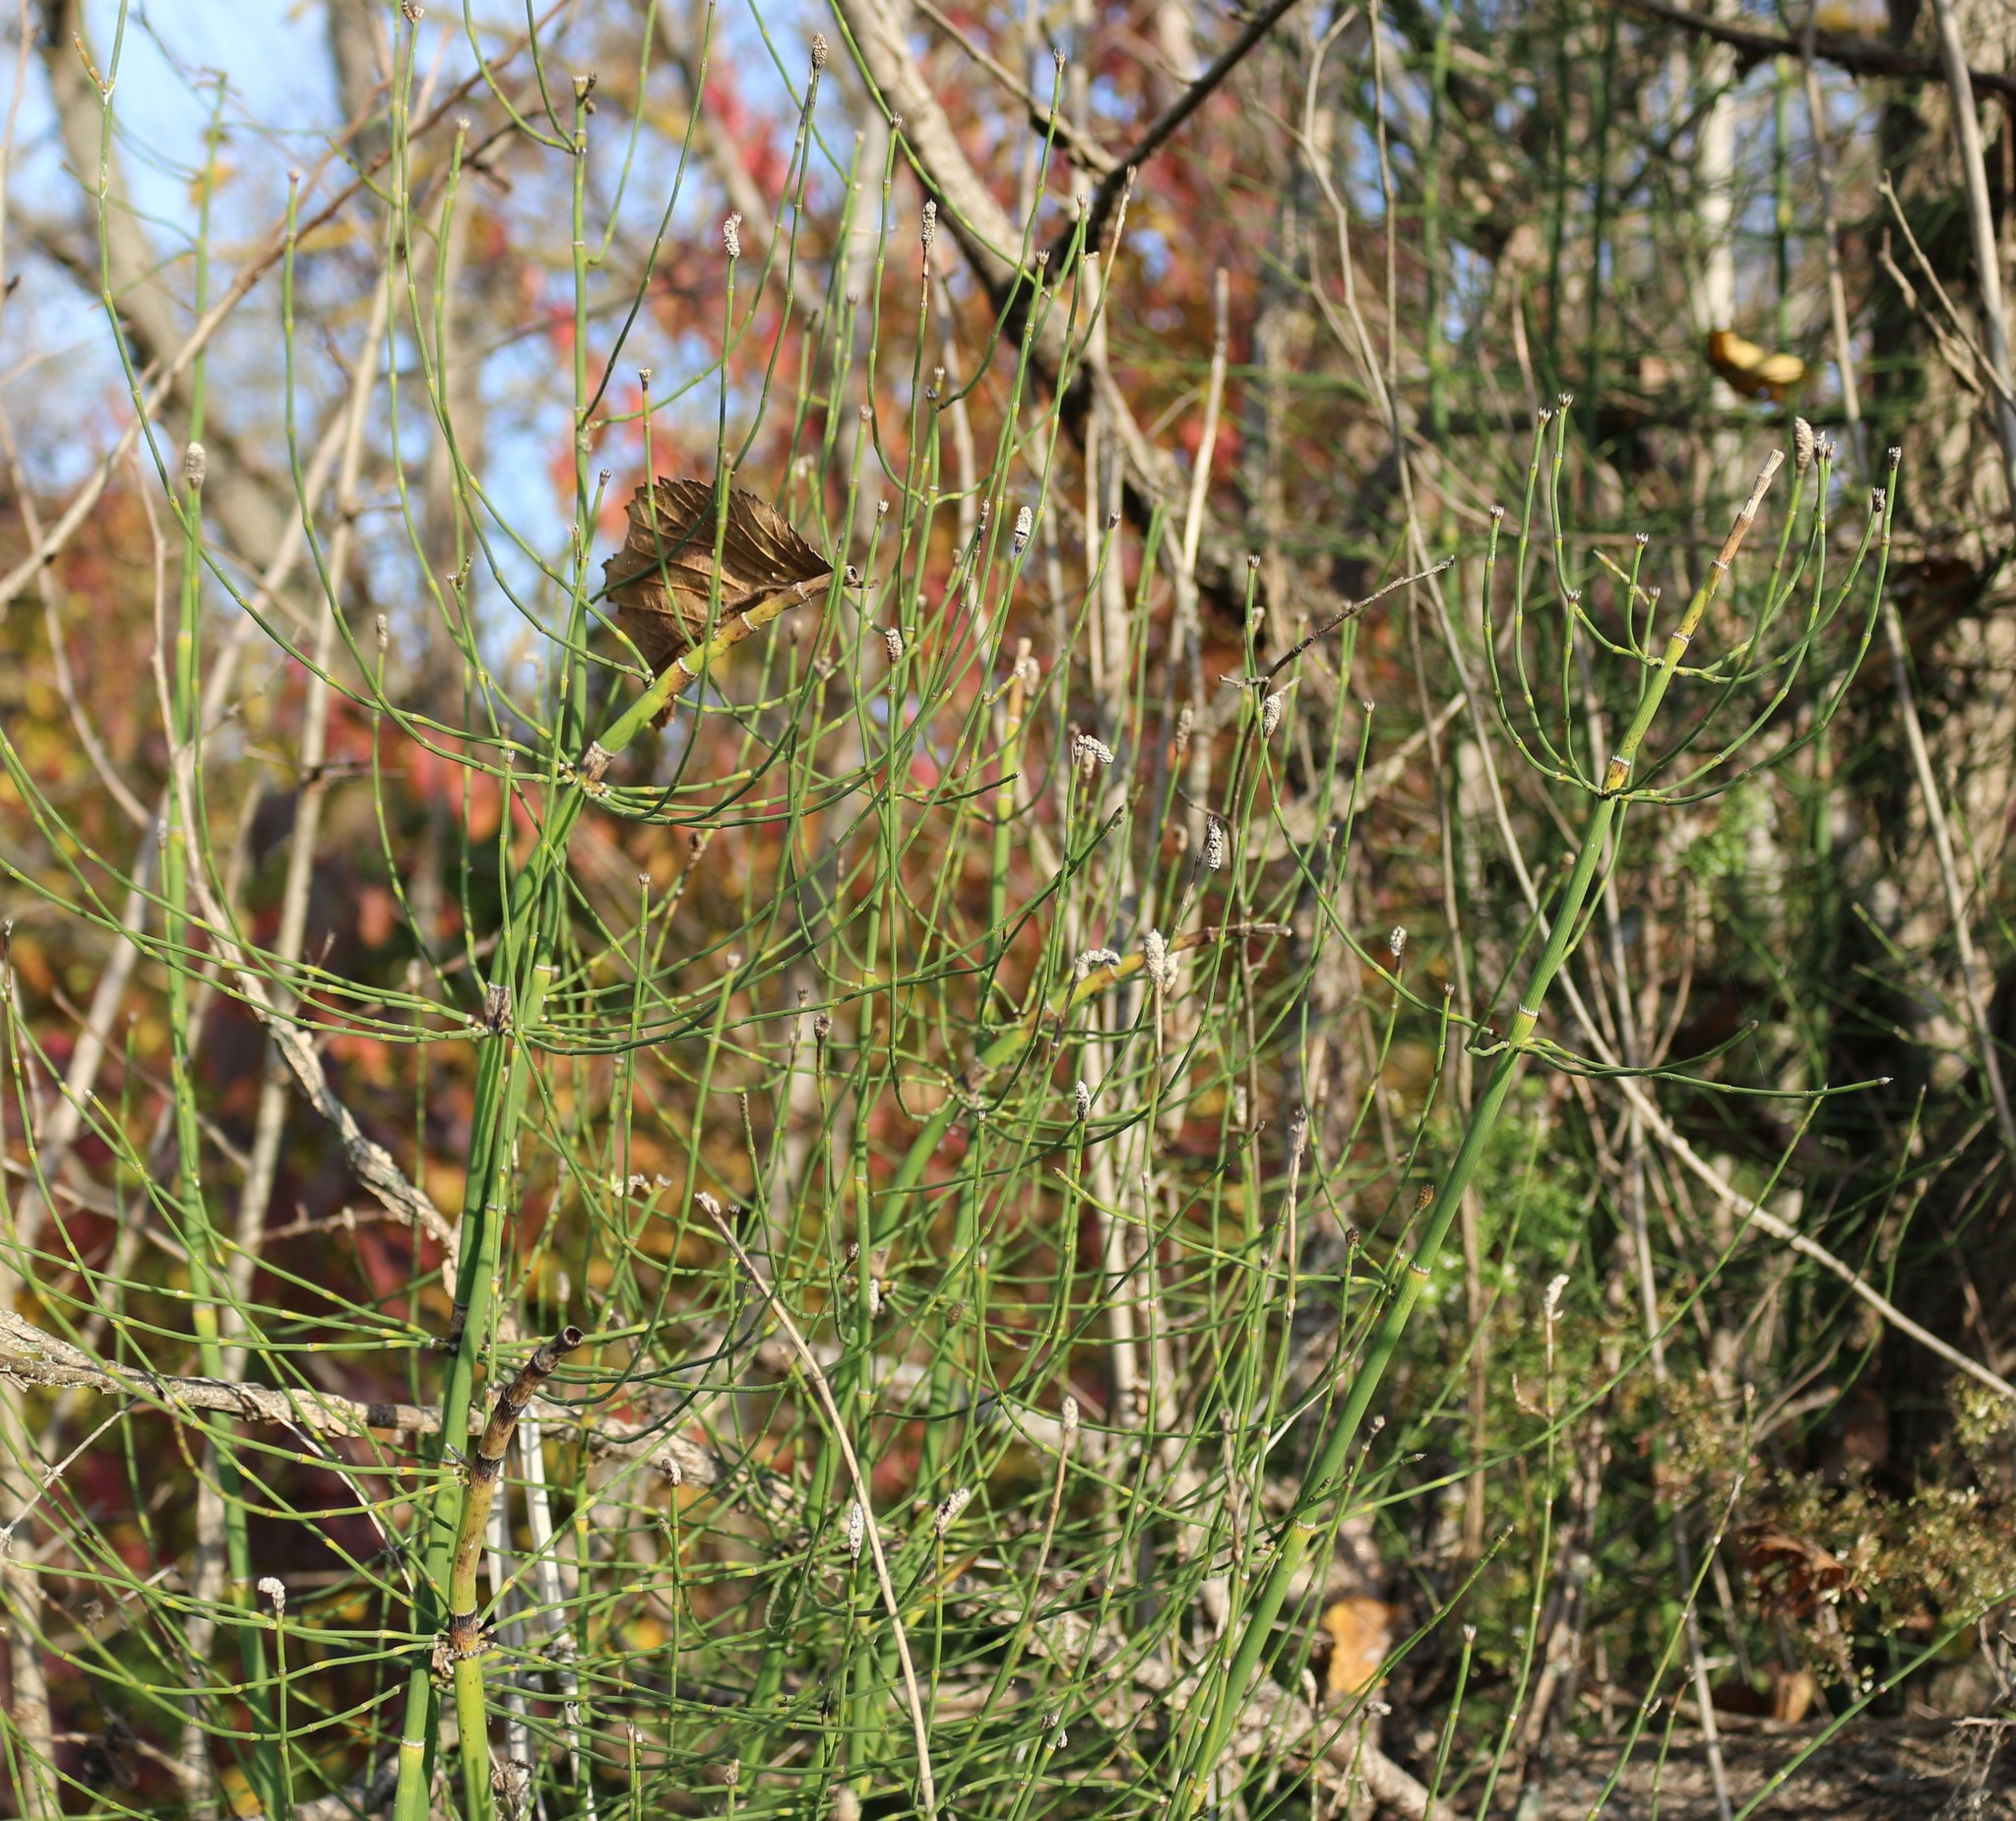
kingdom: Plantae
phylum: Tracheophyta
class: Polypodiopsida
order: Equisetales
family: Equisetaceae
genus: Equisetum
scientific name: Equisetum ramosissimum
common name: Branched horsetail
